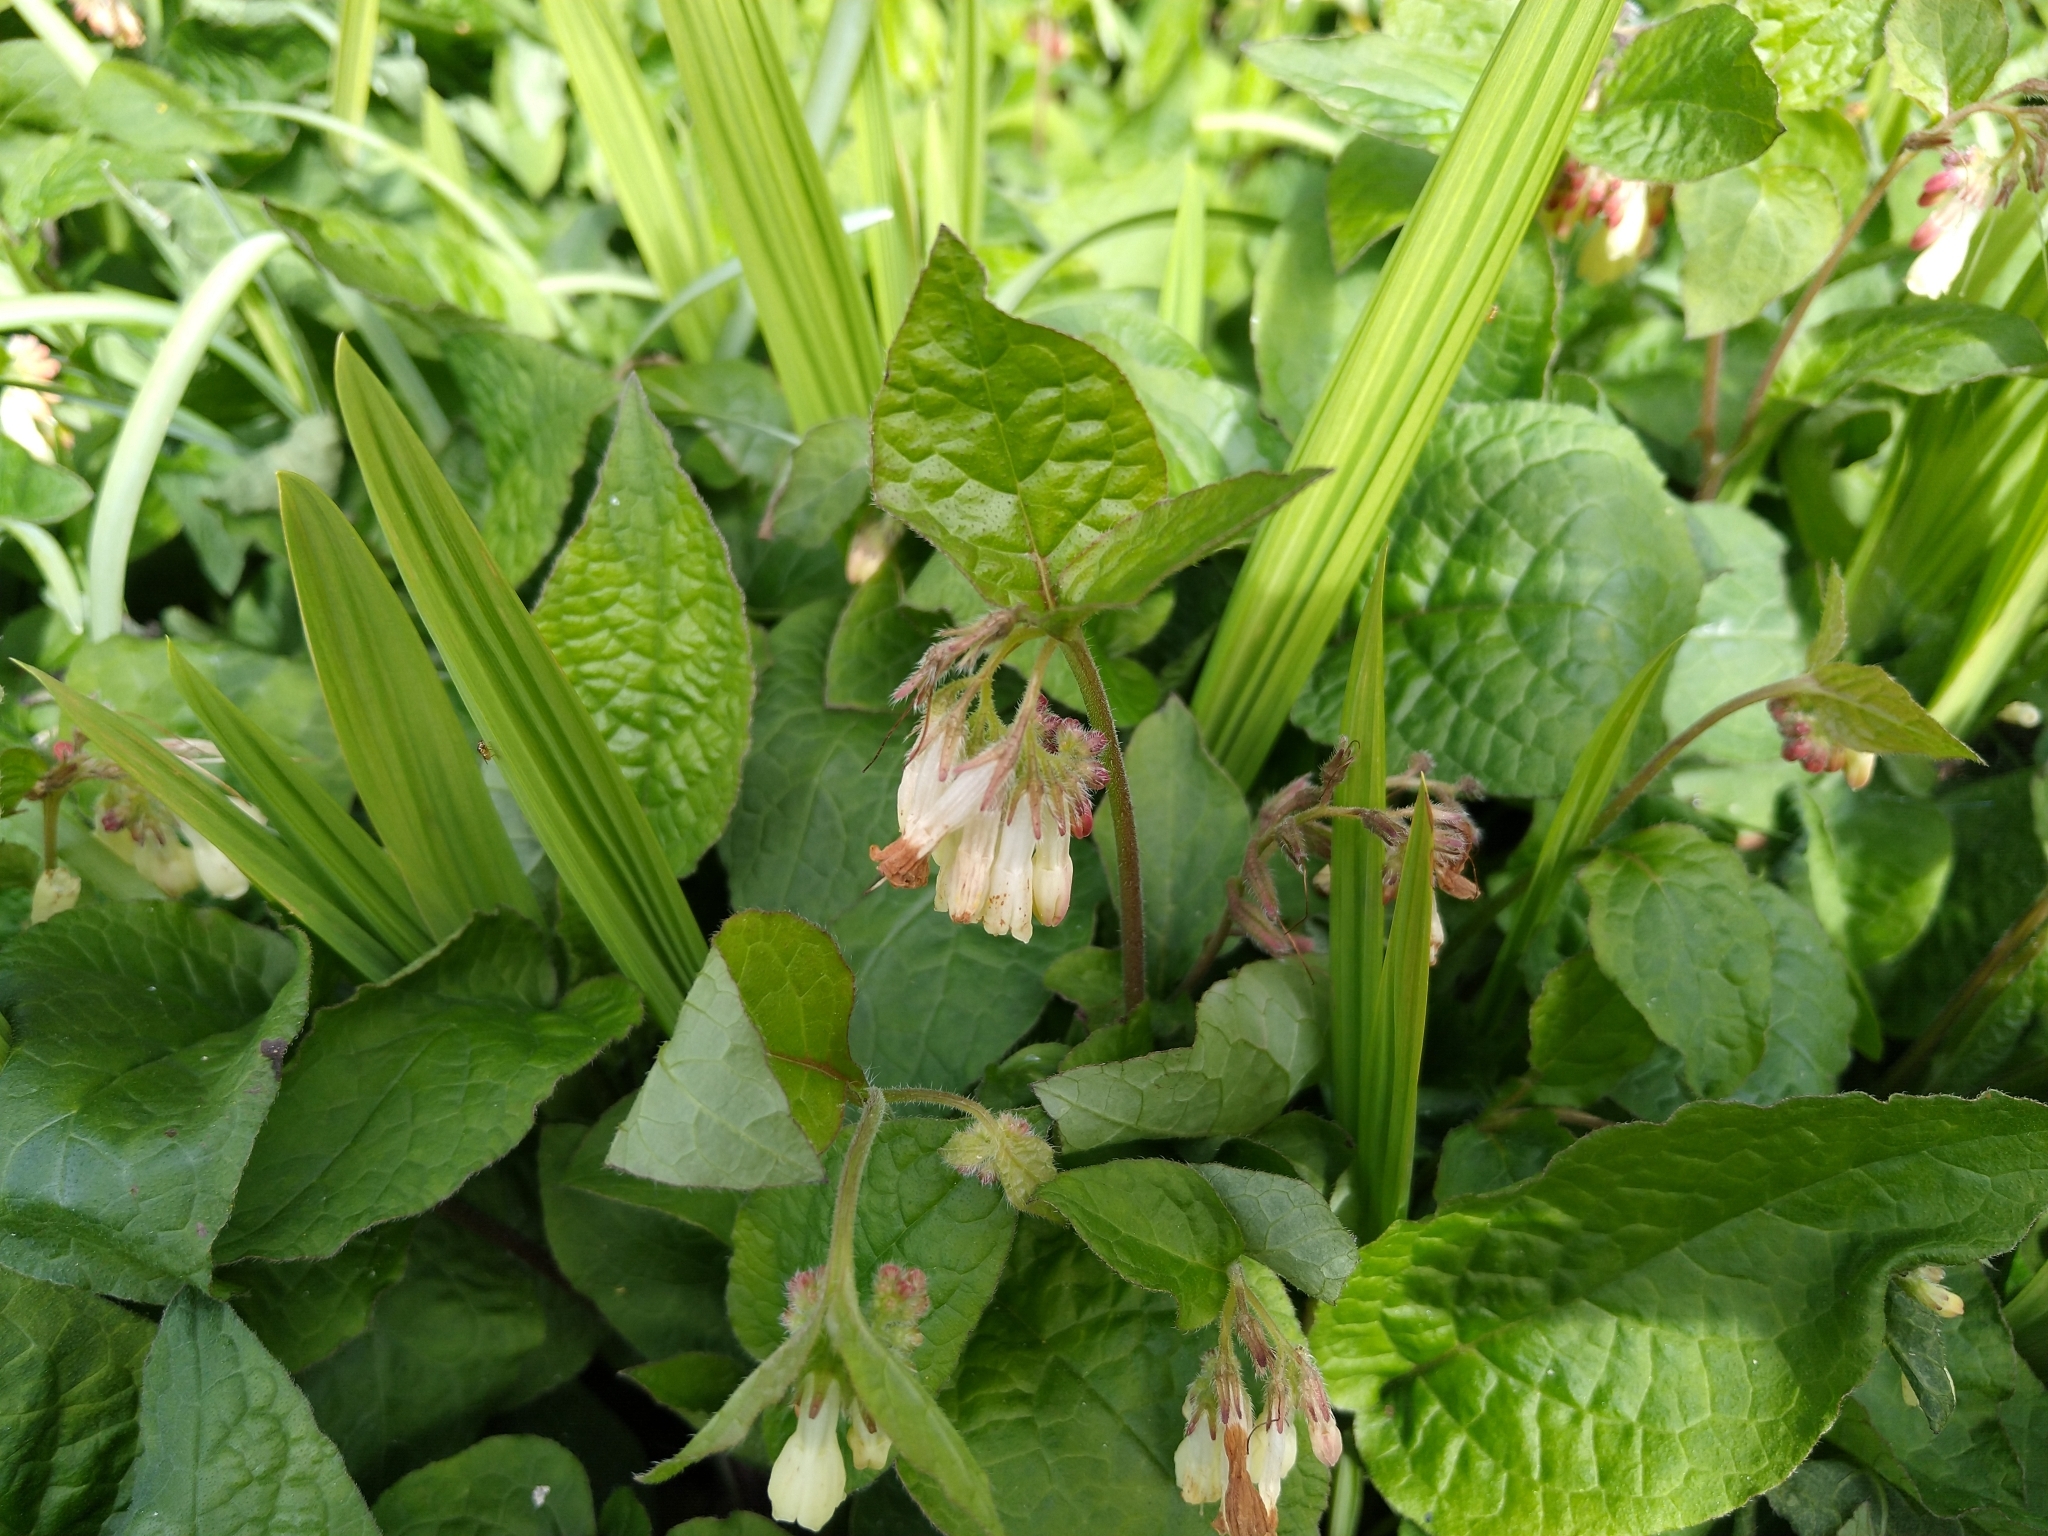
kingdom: Plantae
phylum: Tracheophyta
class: Magnoliopsida
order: Boraginales
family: Boraginaceae
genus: Symphytum
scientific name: Symphytum grandiflorum
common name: Creeping comfrey
